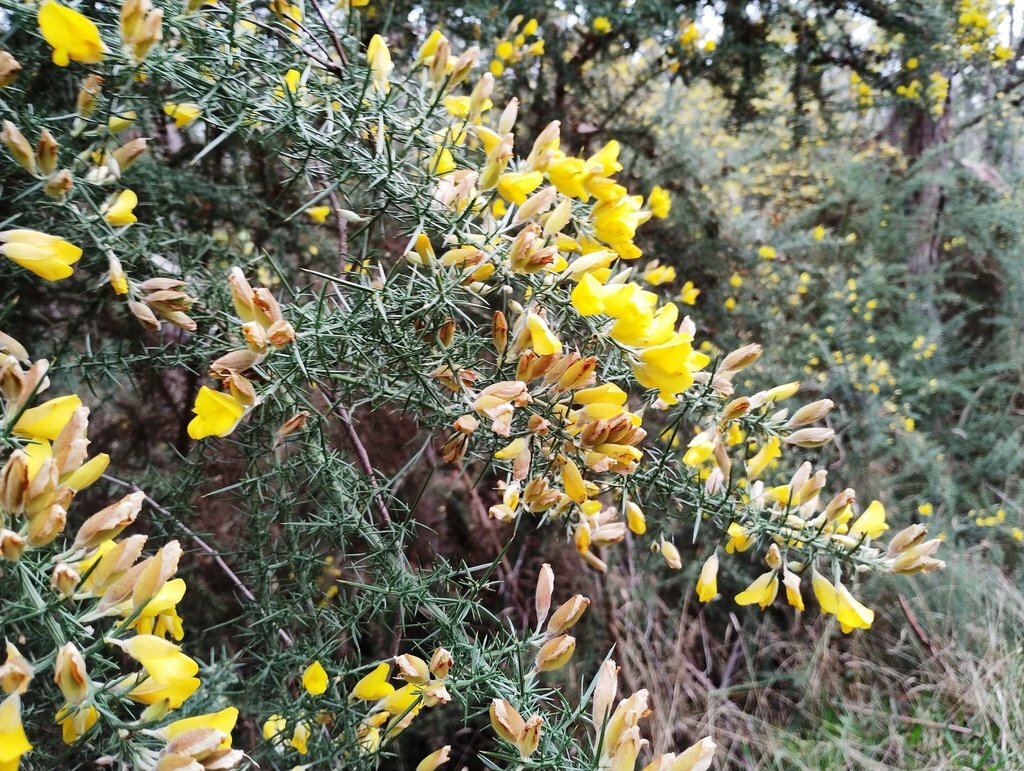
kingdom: Plantae
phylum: Tracheophyta
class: Magnoliopsida
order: Fabales
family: Fabaceae
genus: Ulex
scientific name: Ulex europaeus
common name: Common gorse
